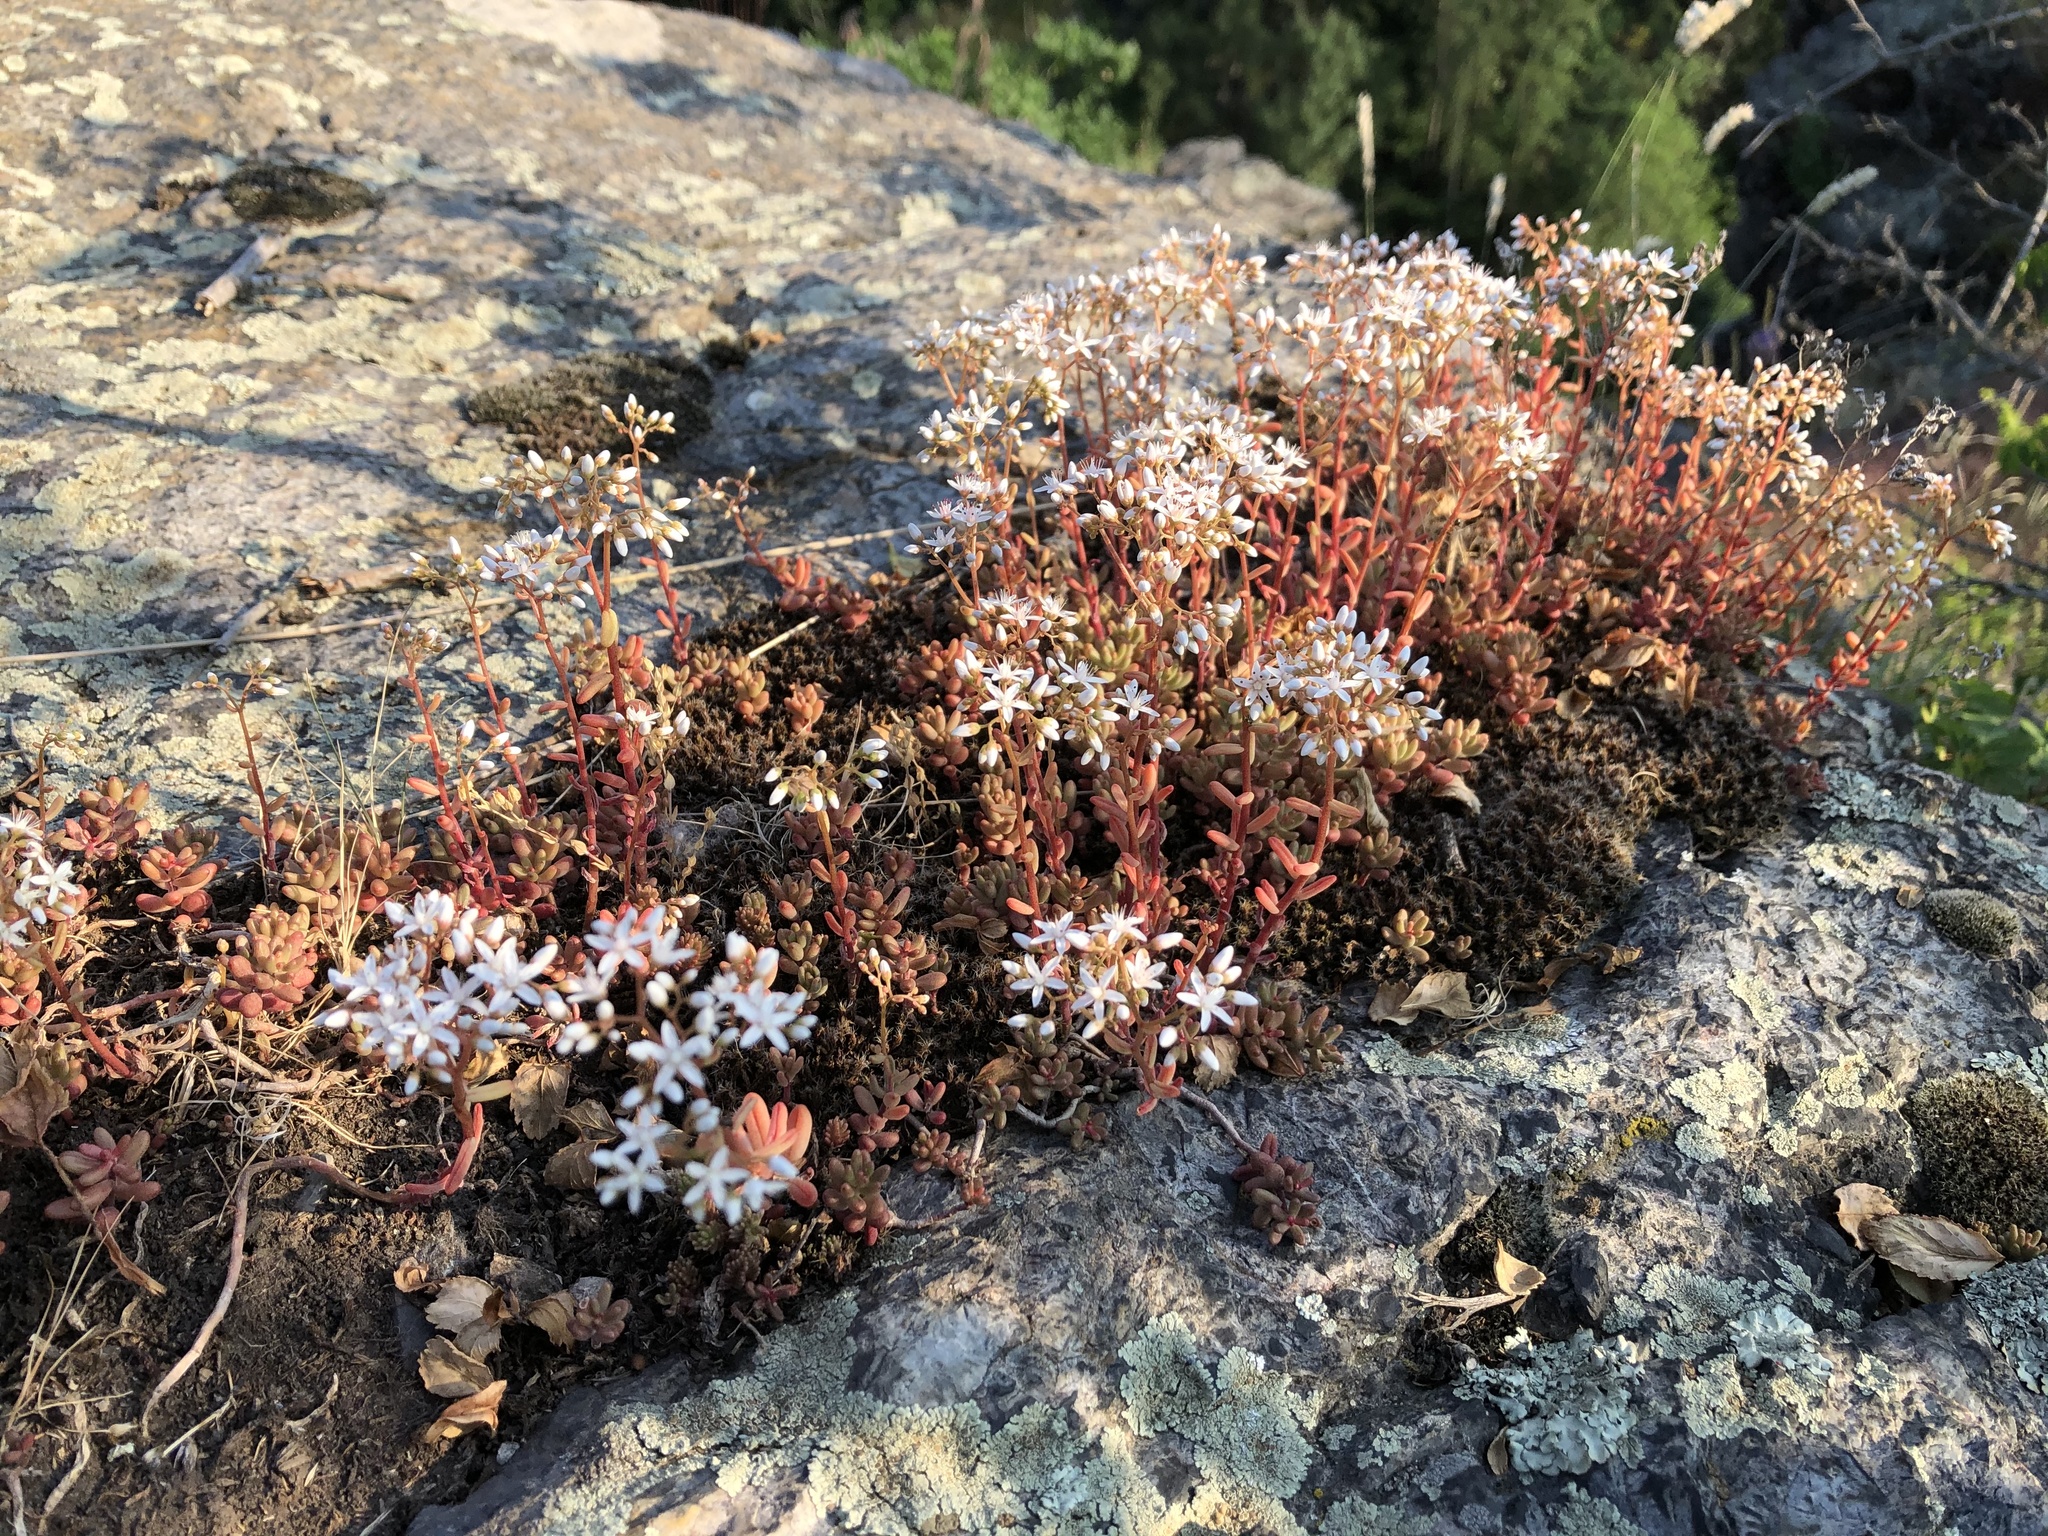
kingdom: Plantae
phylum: Tracheophyta
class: Magnoliopsida
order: Saxifragales
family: Crassulaceae
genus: Sedum
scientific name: Sedum album
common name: White stonecrop
